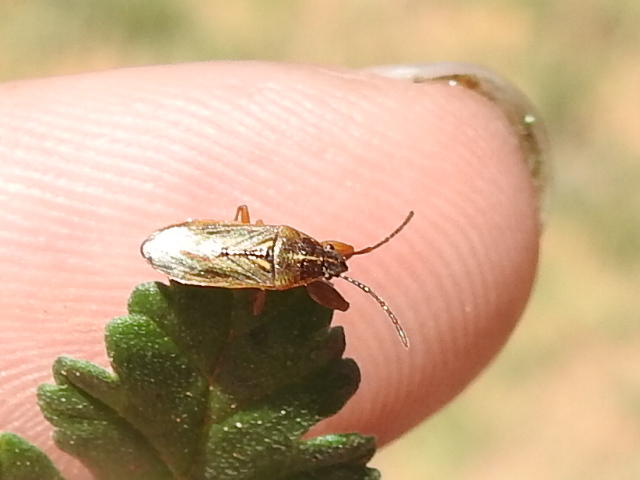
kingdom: Animalia
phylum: Arthropoda
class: Insecta
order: Hemiptera
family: Pachygronthidae
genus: Oedancala
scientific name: Oedancala dorsalis
